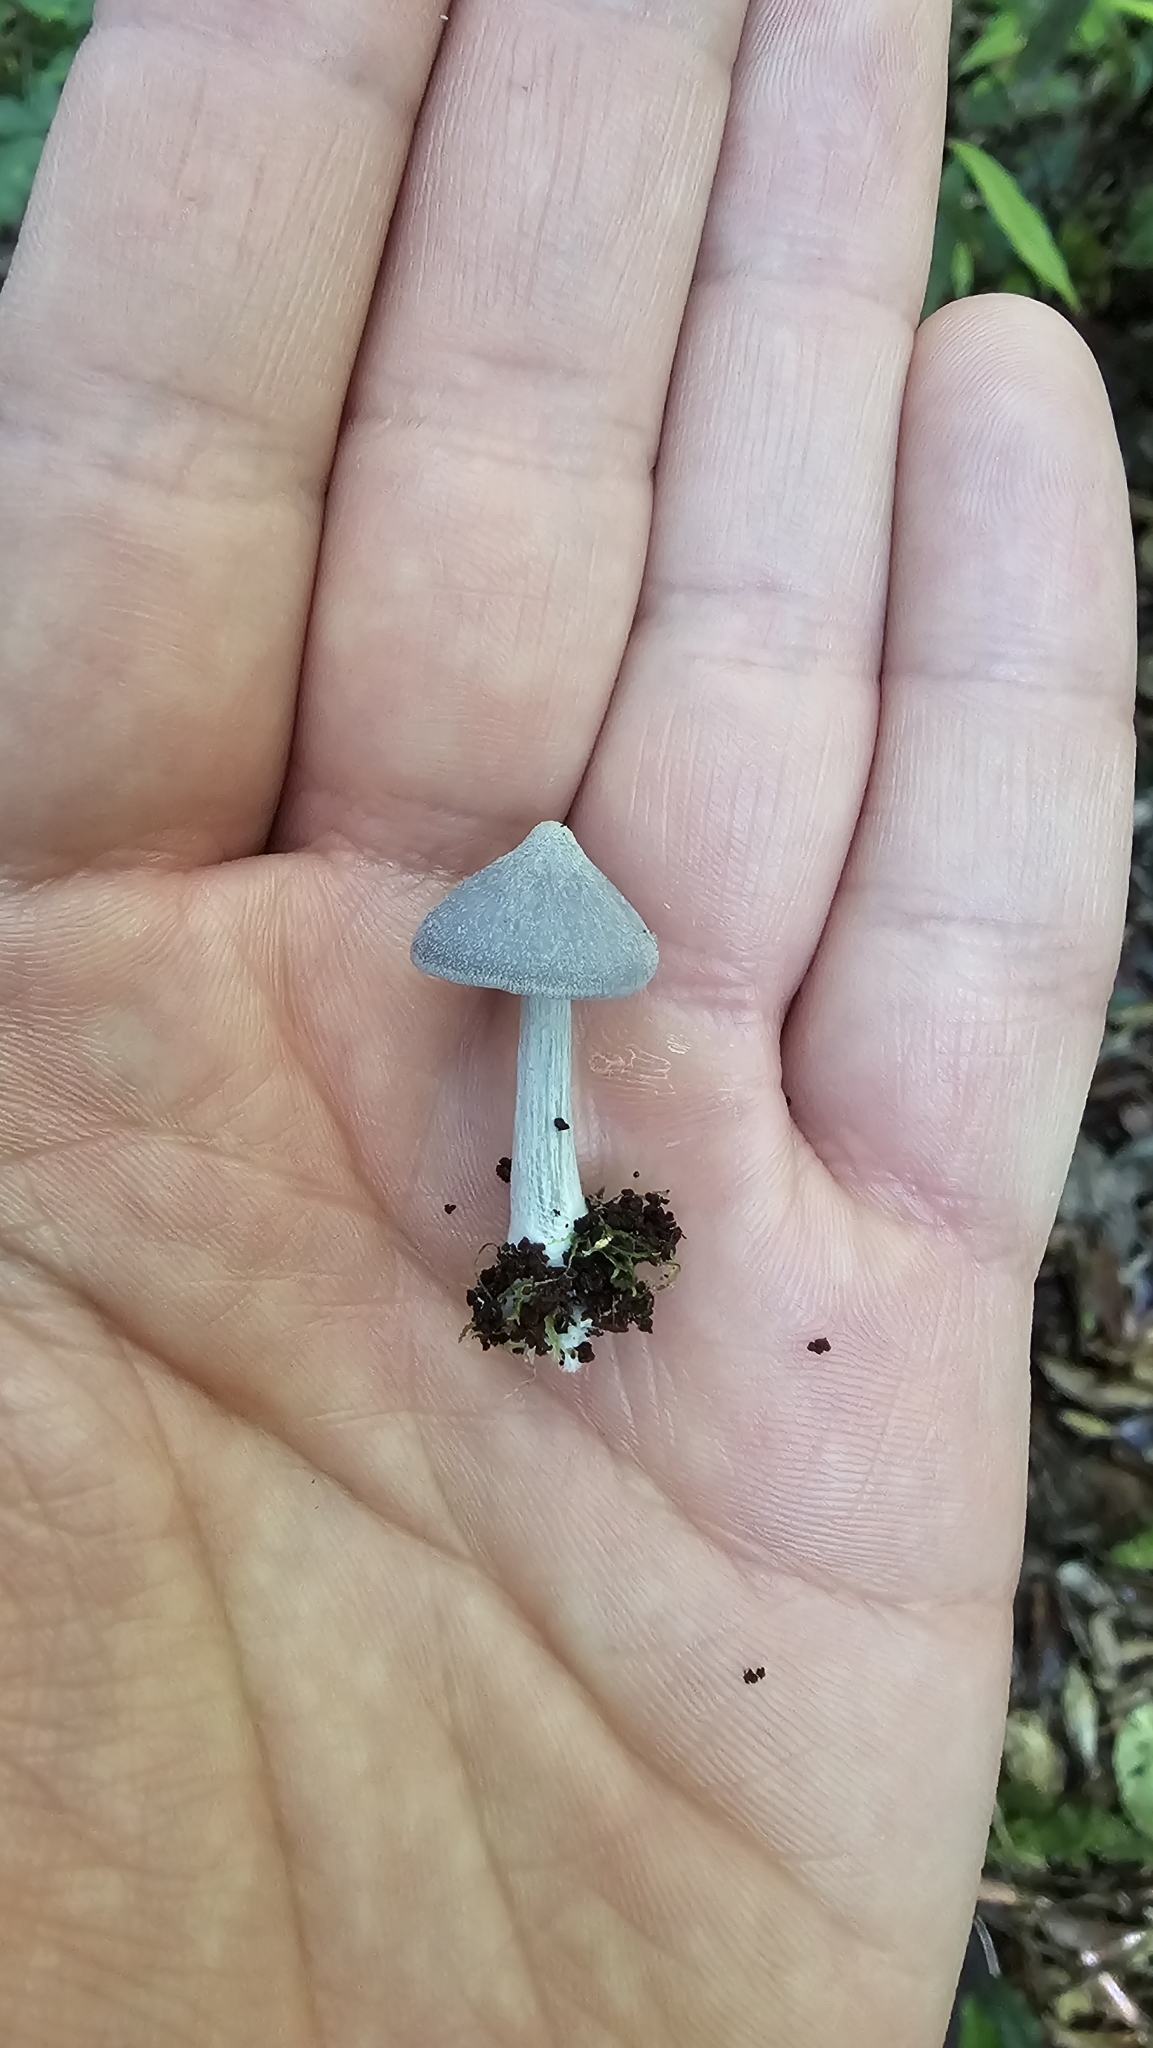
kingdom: Fungi
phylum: Basidiomycota
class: Agaricomycetes
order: Agaricales
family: Entolomataceae
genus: Entoloma
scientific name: Entoloma hochstetteri
